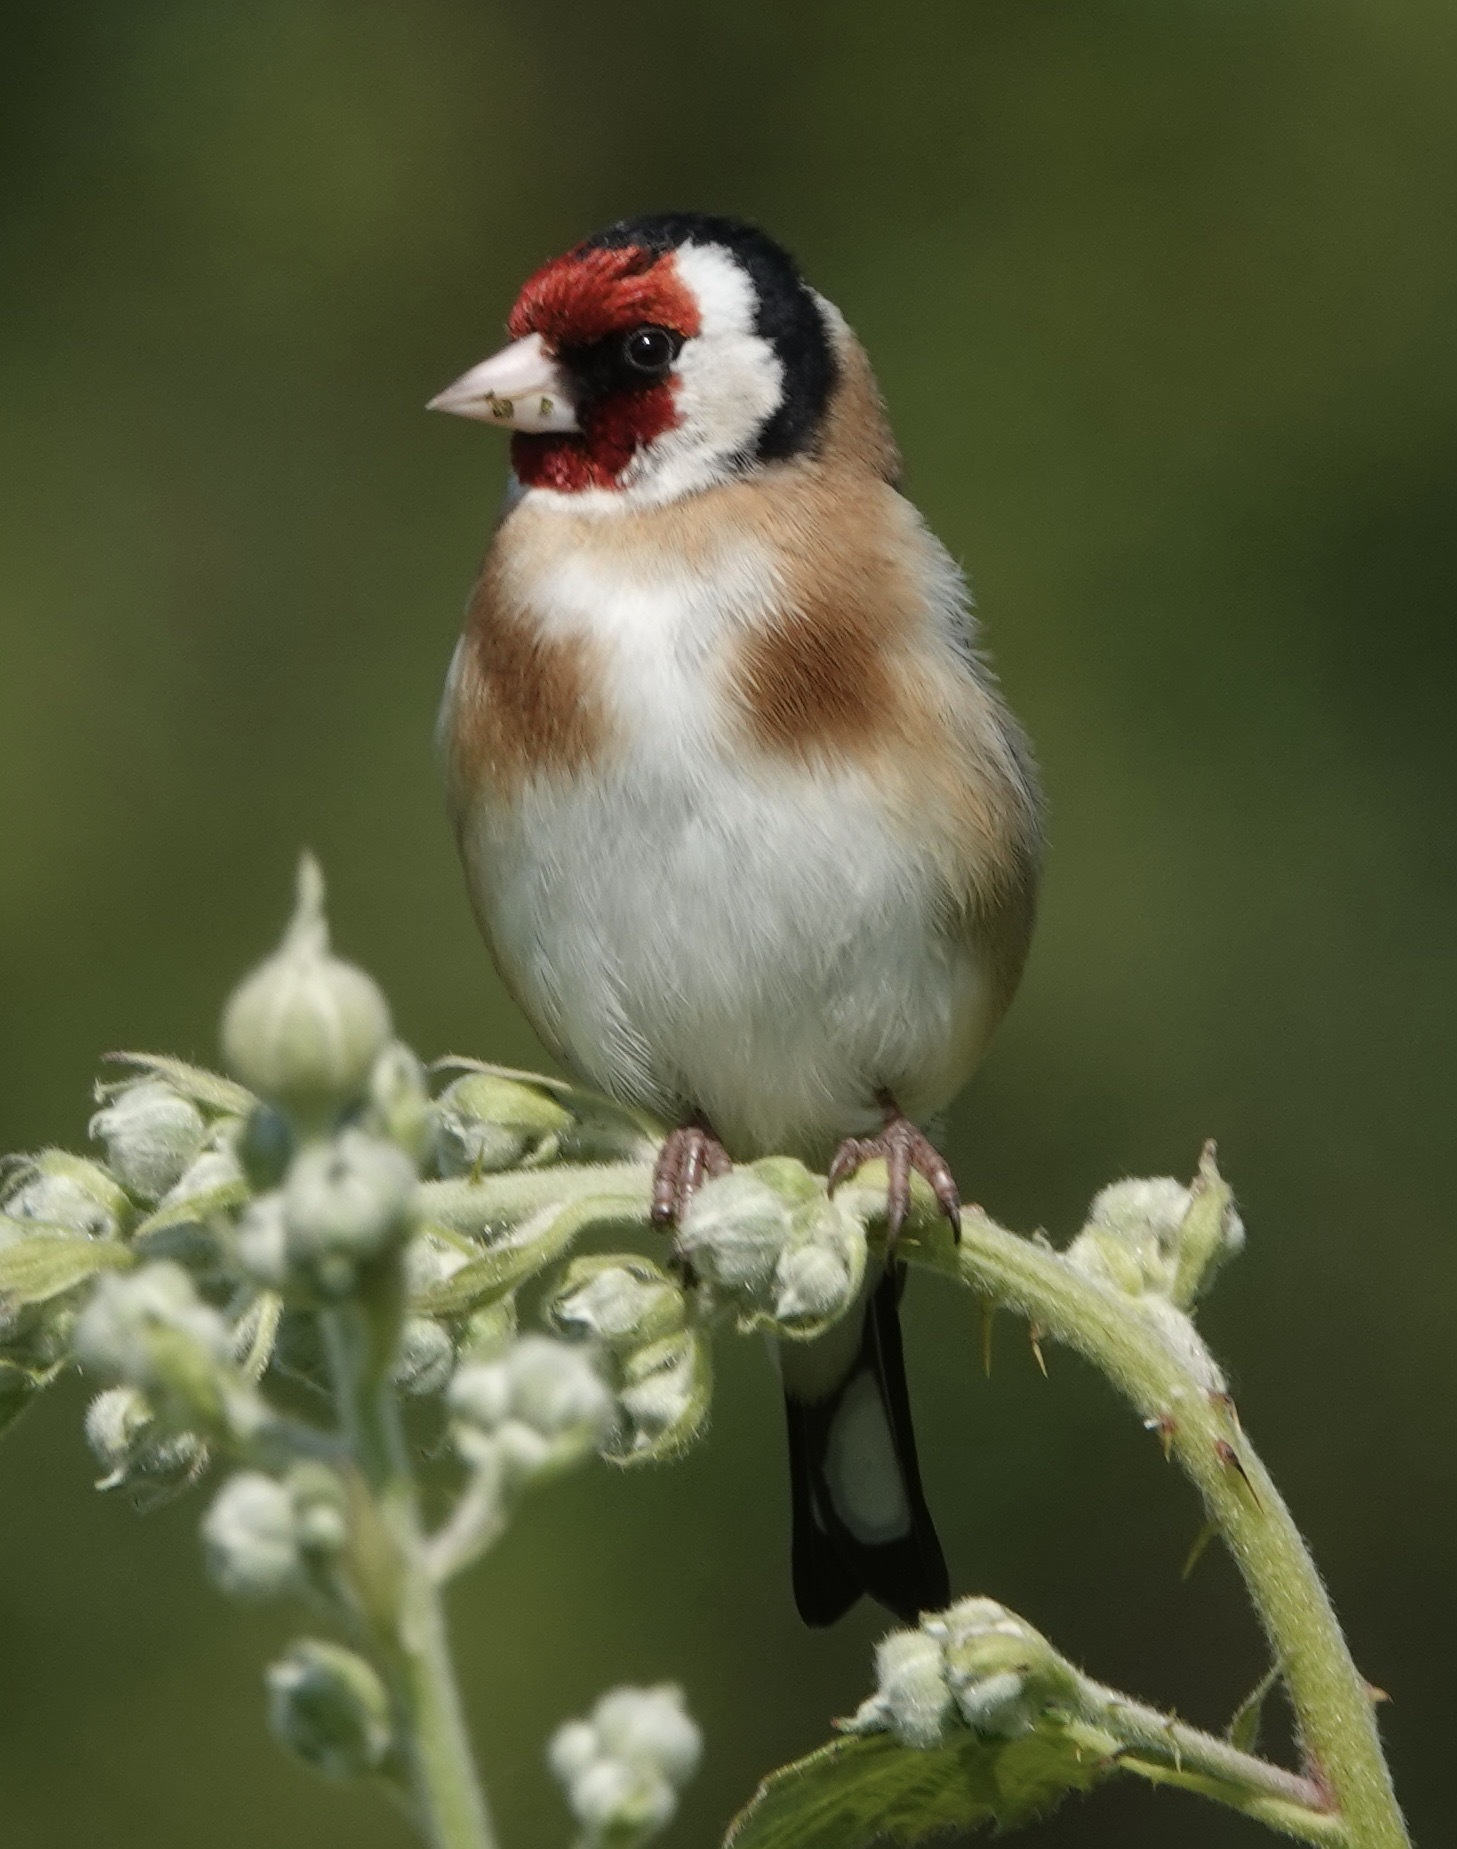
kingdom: Animalia
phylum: Chordata
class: Aves
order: Passeriformes
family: Fringillidae
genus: Carduelis
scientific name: Carduelis carduelis
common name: European goldfinch
